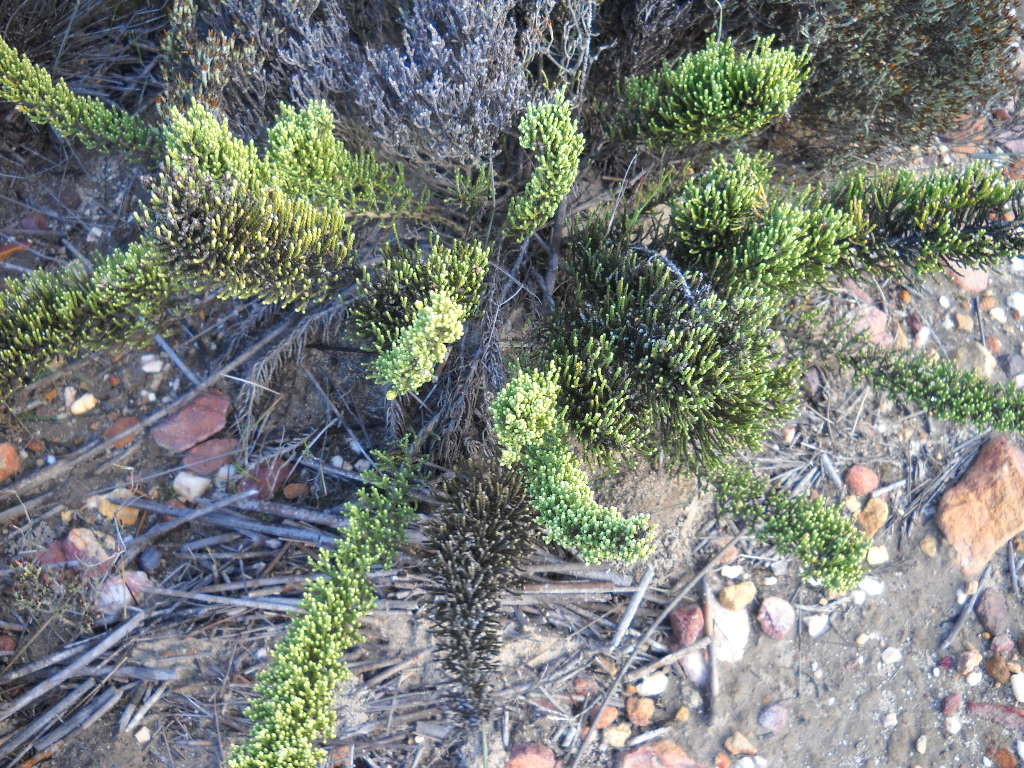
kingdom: Plantae
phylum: Tracheophyta
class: Magnoliopsida
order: Asterales
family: Asteraceae
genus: Dolichothrix
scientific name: Dolichothrix ericoides
